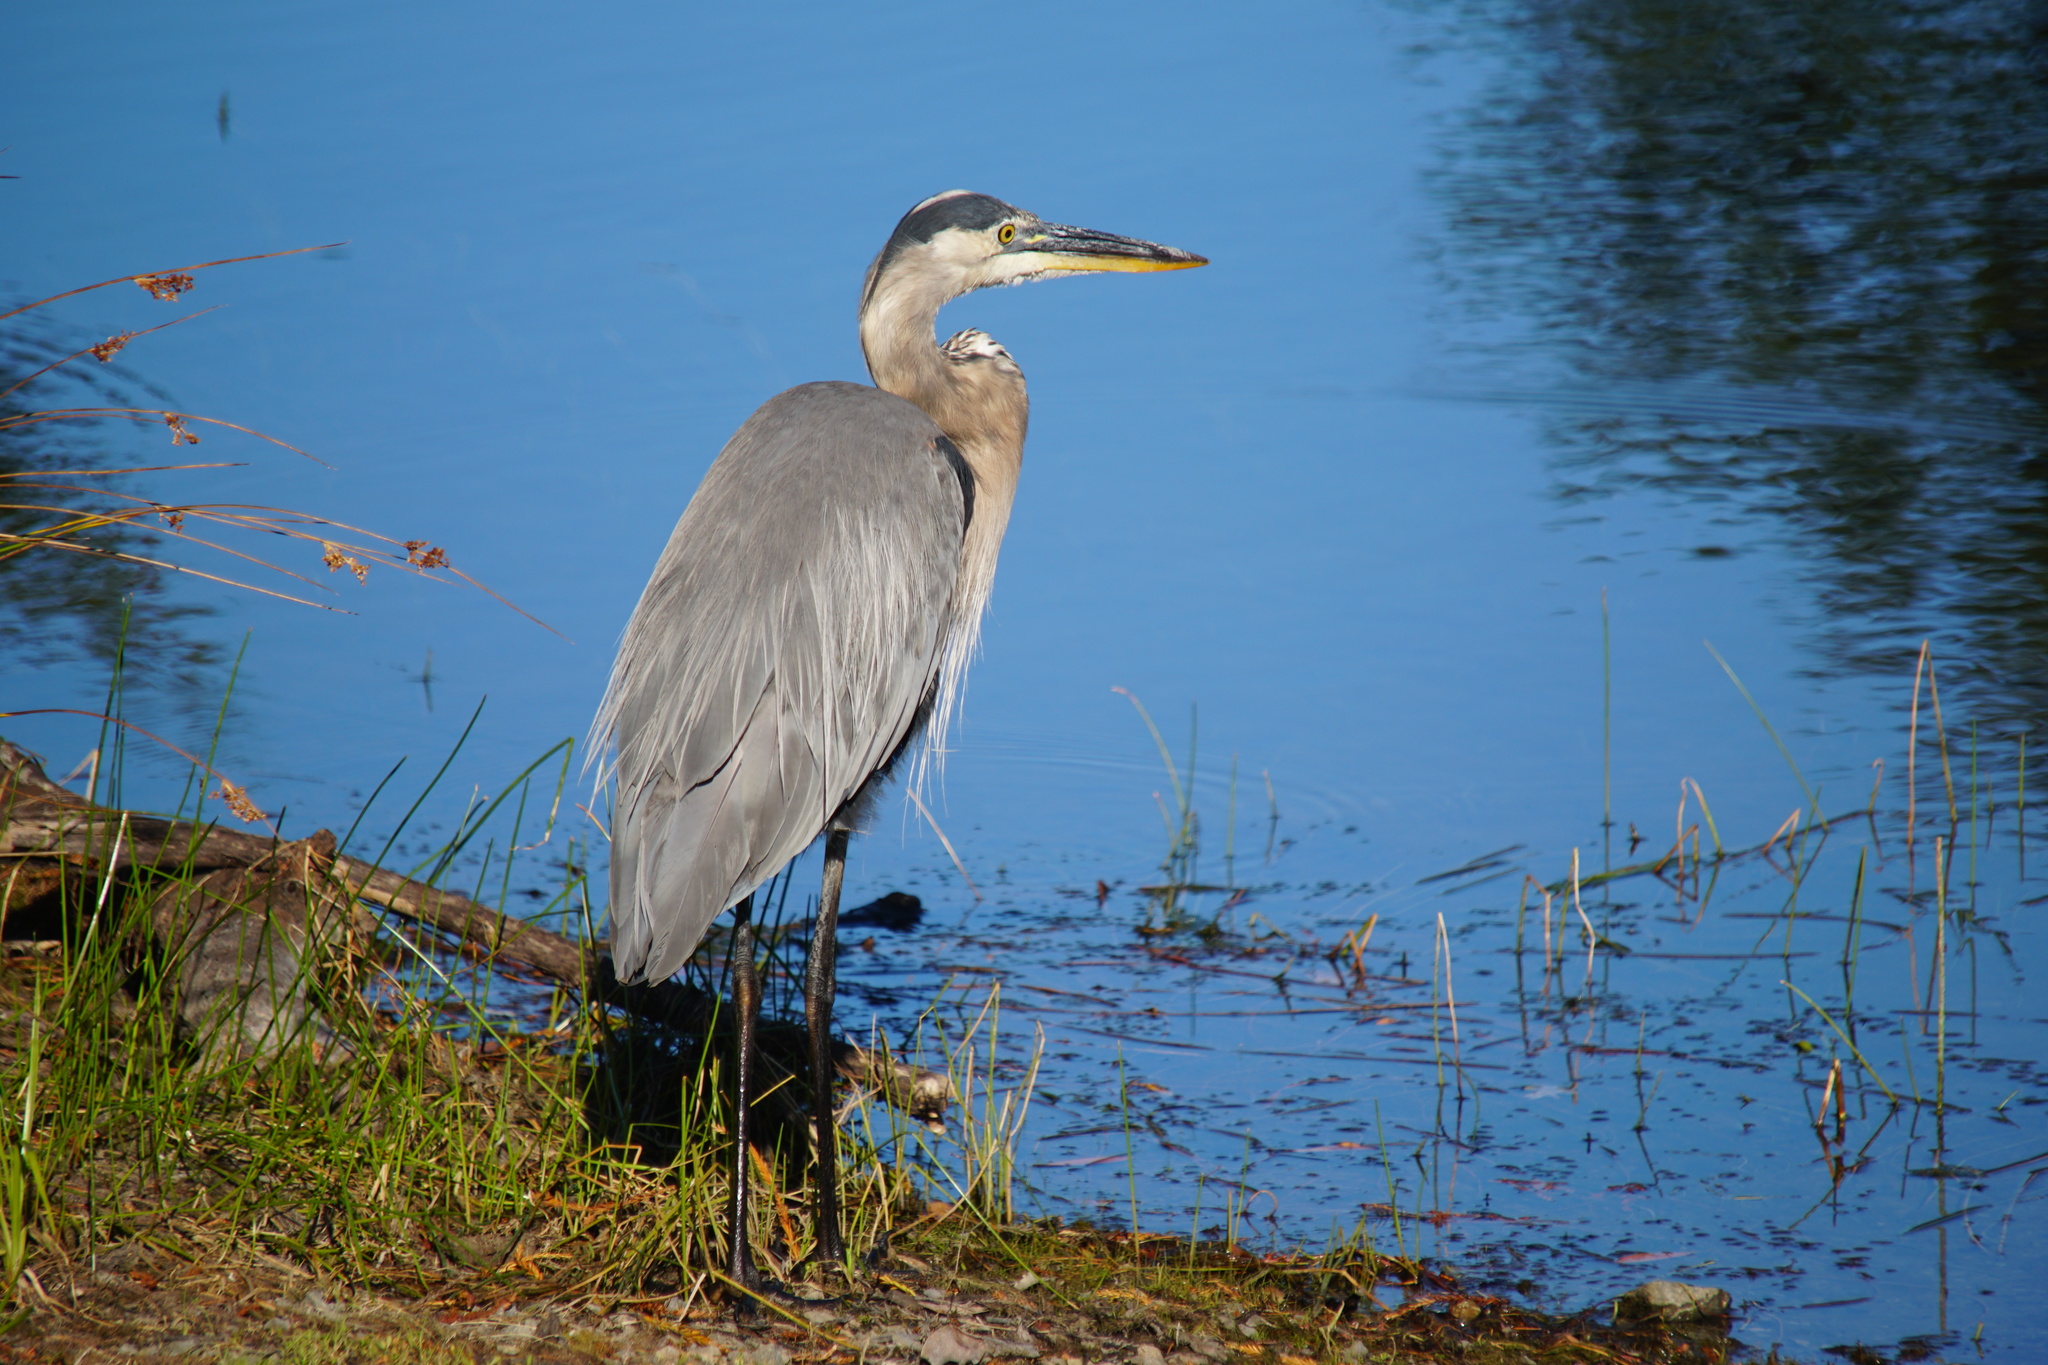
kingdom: Animalia
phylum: Chordata
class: Aves
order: Pelecaniformes
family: Ardeidae
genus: Ardea
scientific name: Ardea herodias
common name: Great blue heron
